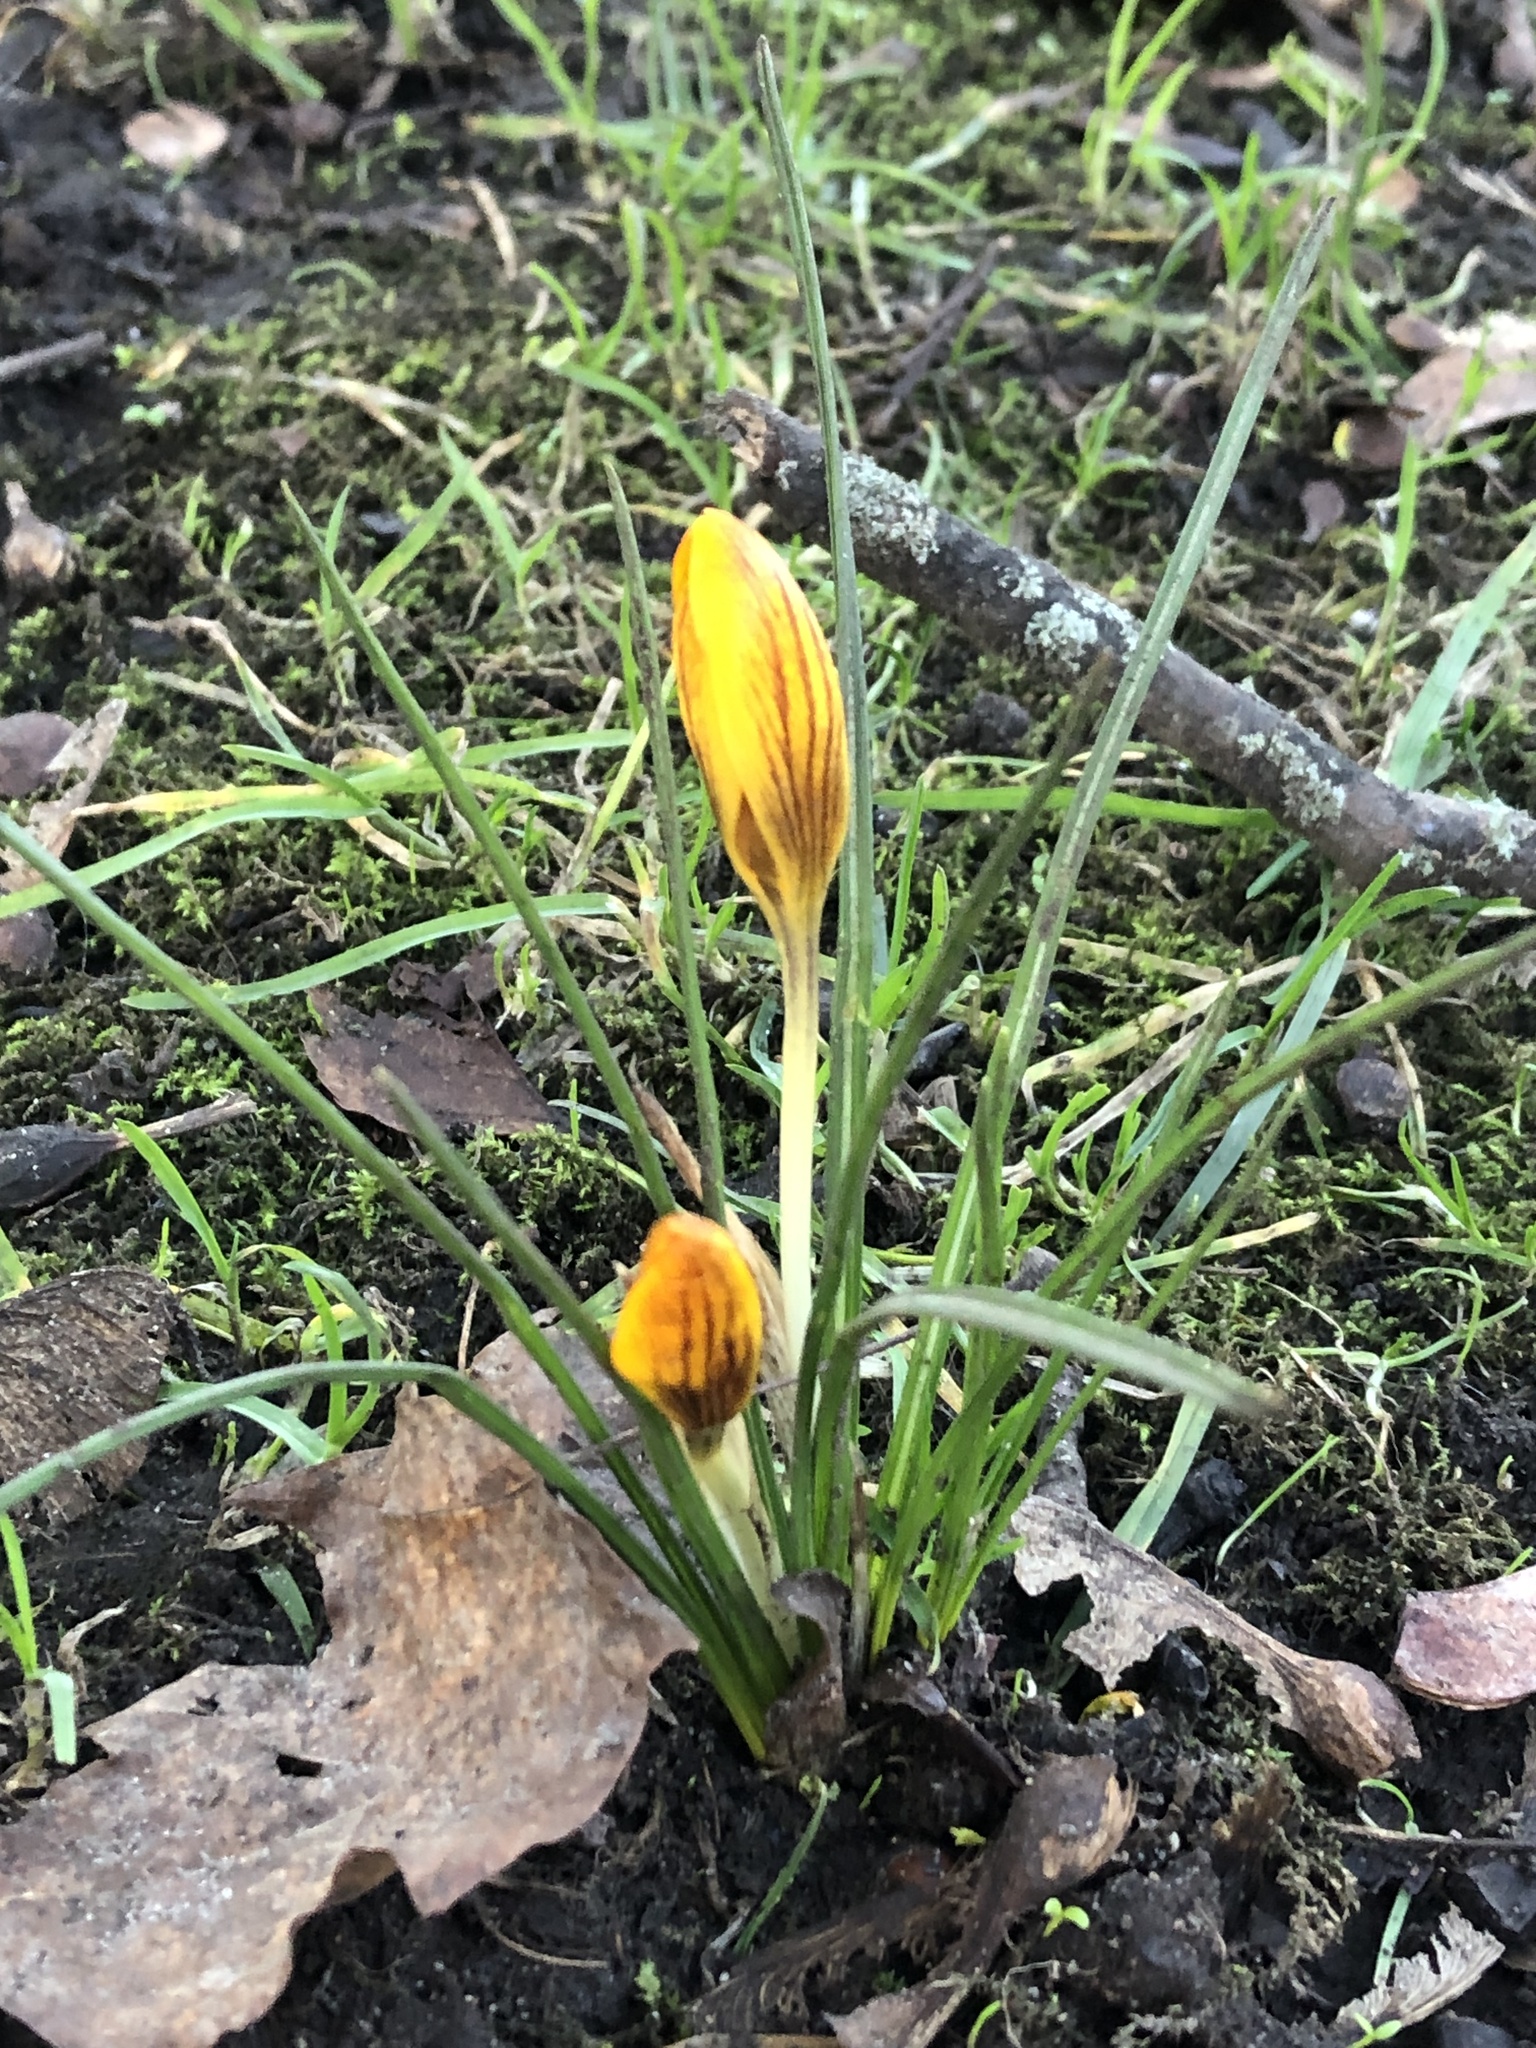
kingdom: Plantae
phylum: Tracheophyta
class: Liliopsida
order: Asparagales
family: Iridaceae
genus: Crocus
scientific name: Crocus chrysanthus
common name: Golden crocus
